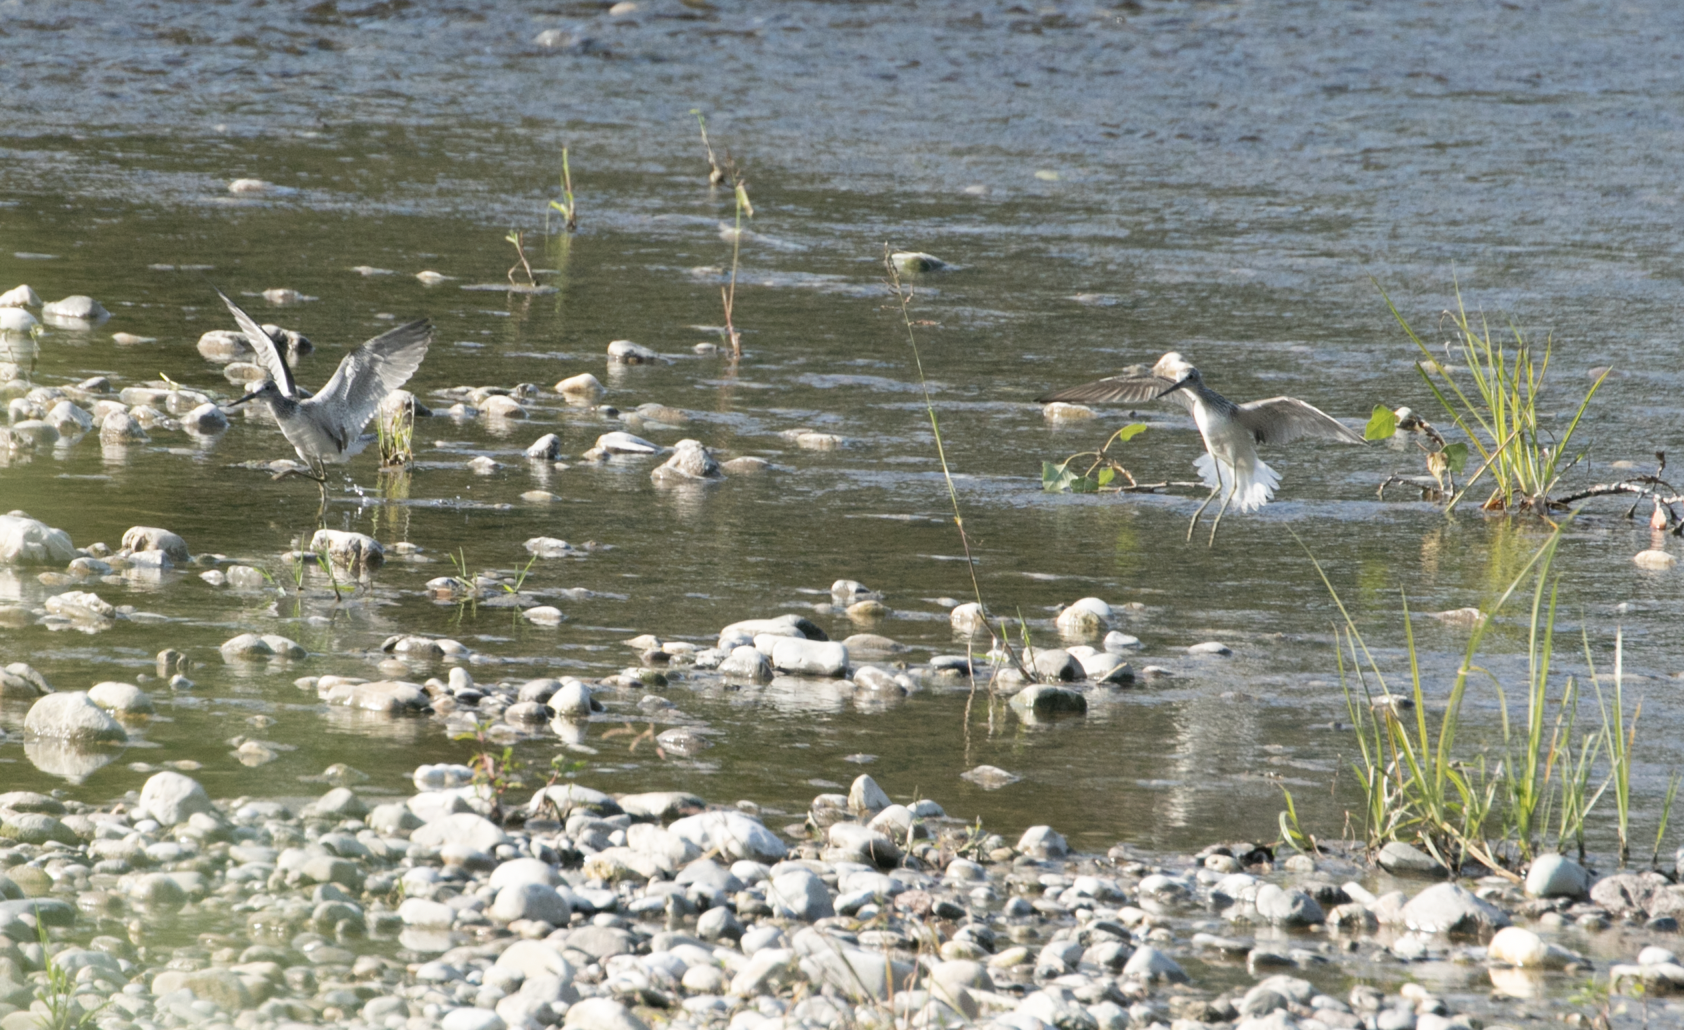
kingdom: Animalia
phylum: Chordata
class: Aves
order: Charadriiformes
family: Scolopacidae
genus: Tringa
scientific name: Tringa nebularia
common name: Common greenshank
